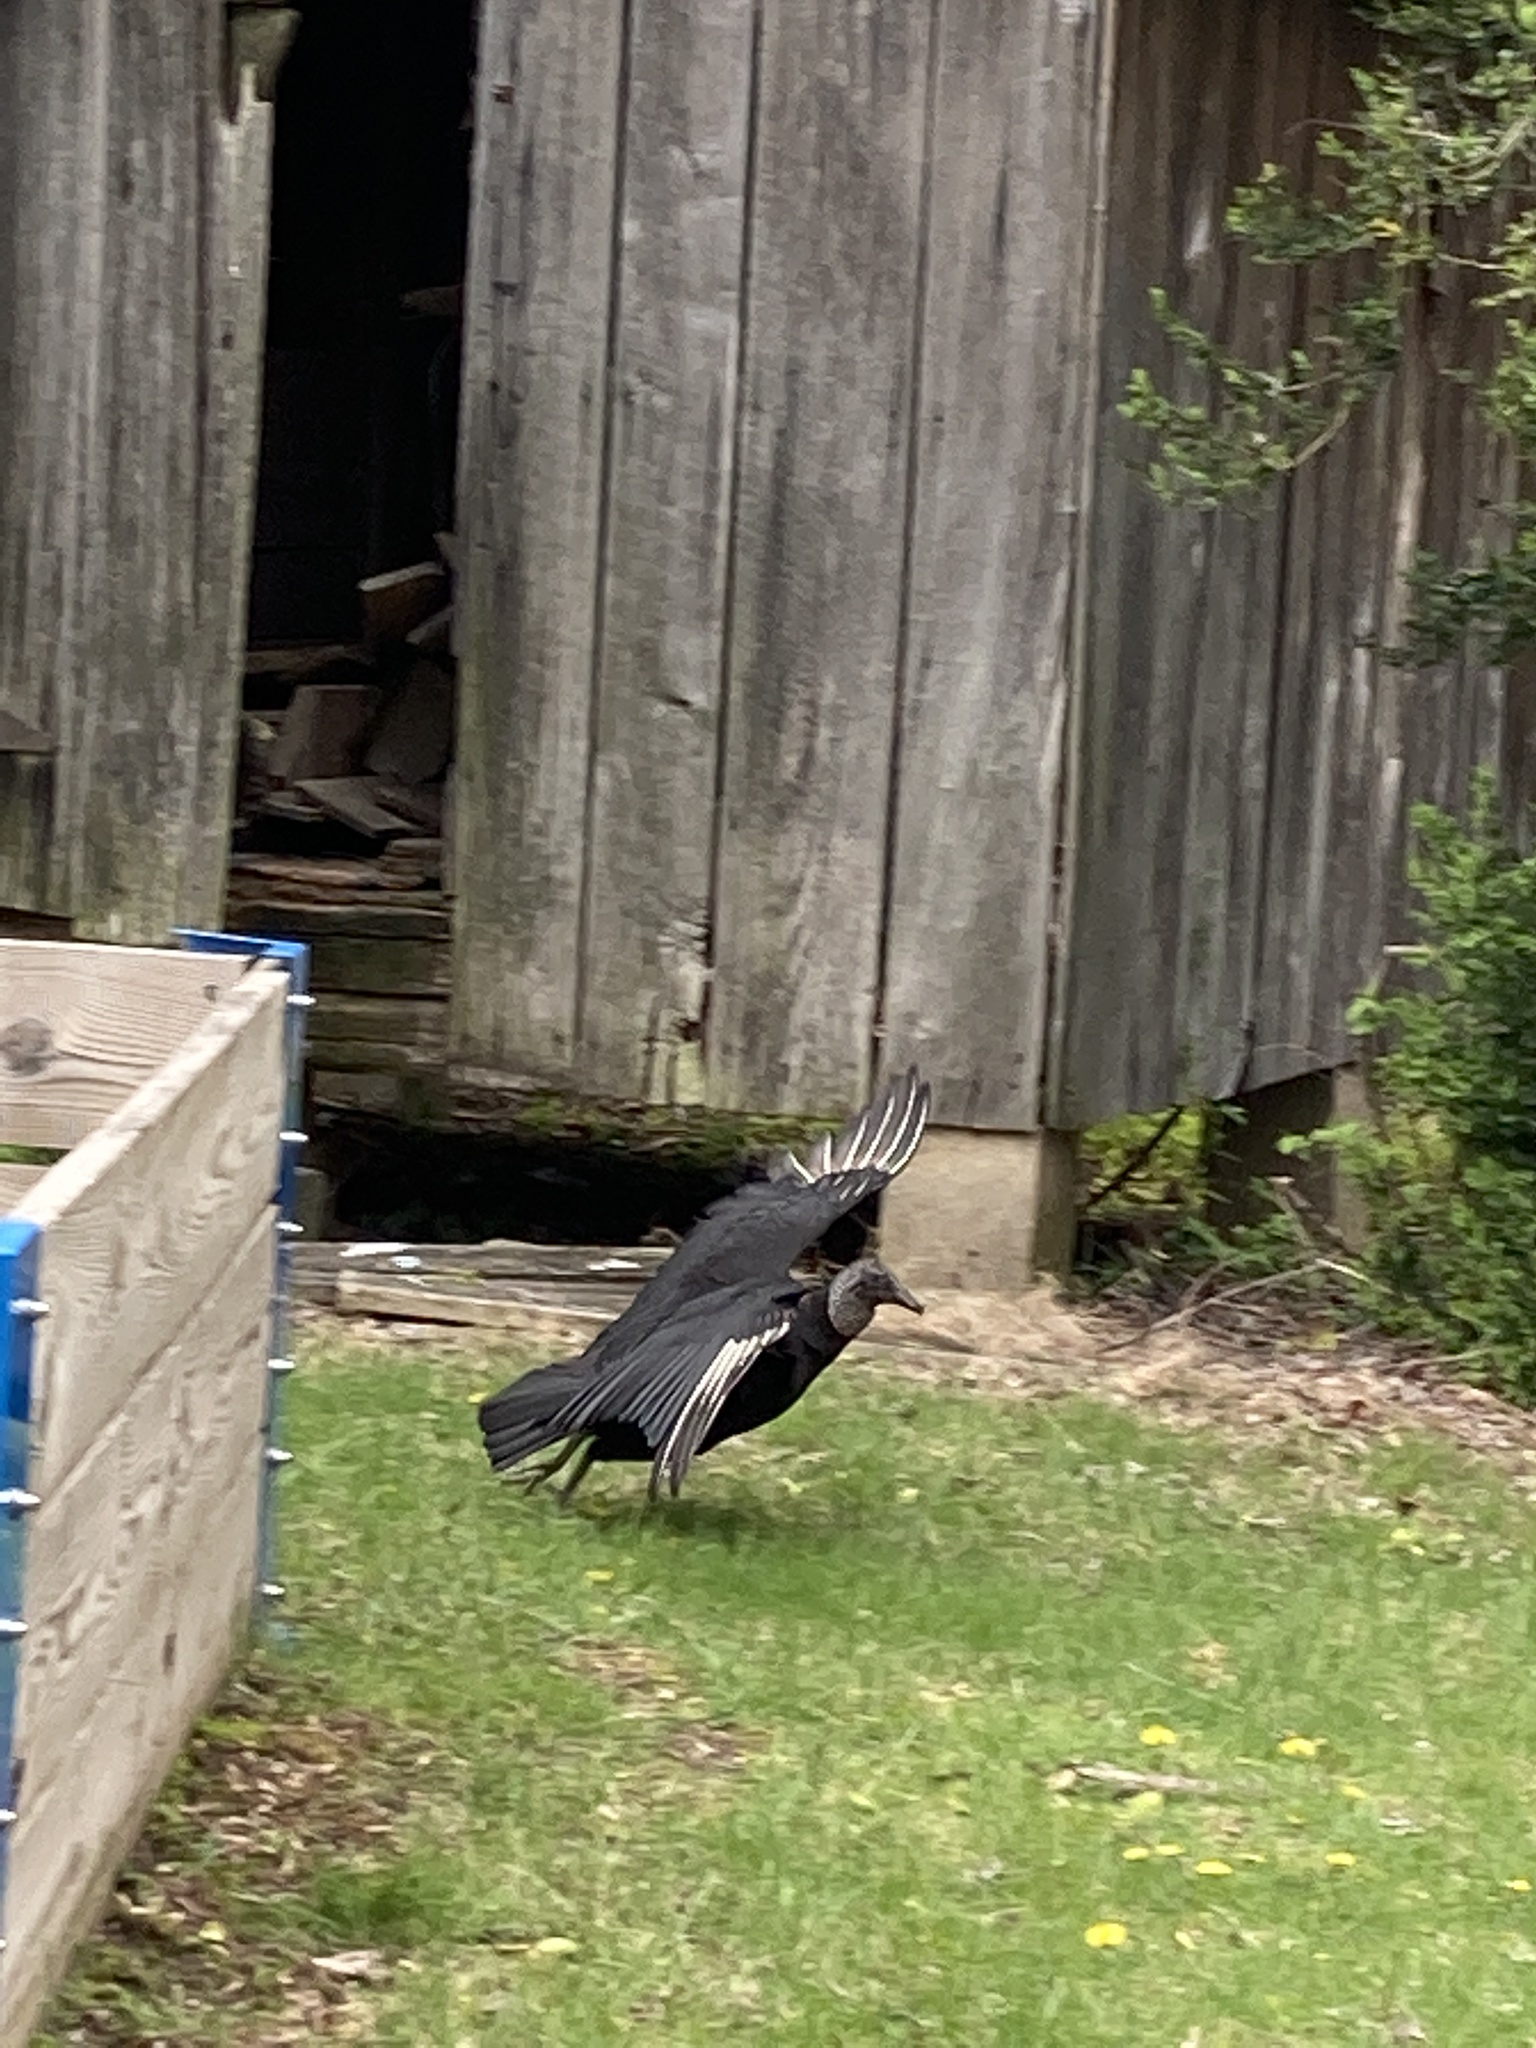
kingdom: Animalia
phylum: Chordata
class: Aves
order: Accipitriformes
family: Cathartidae
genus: Coragyps
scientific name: Coragyps atratus
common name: Black vulture
